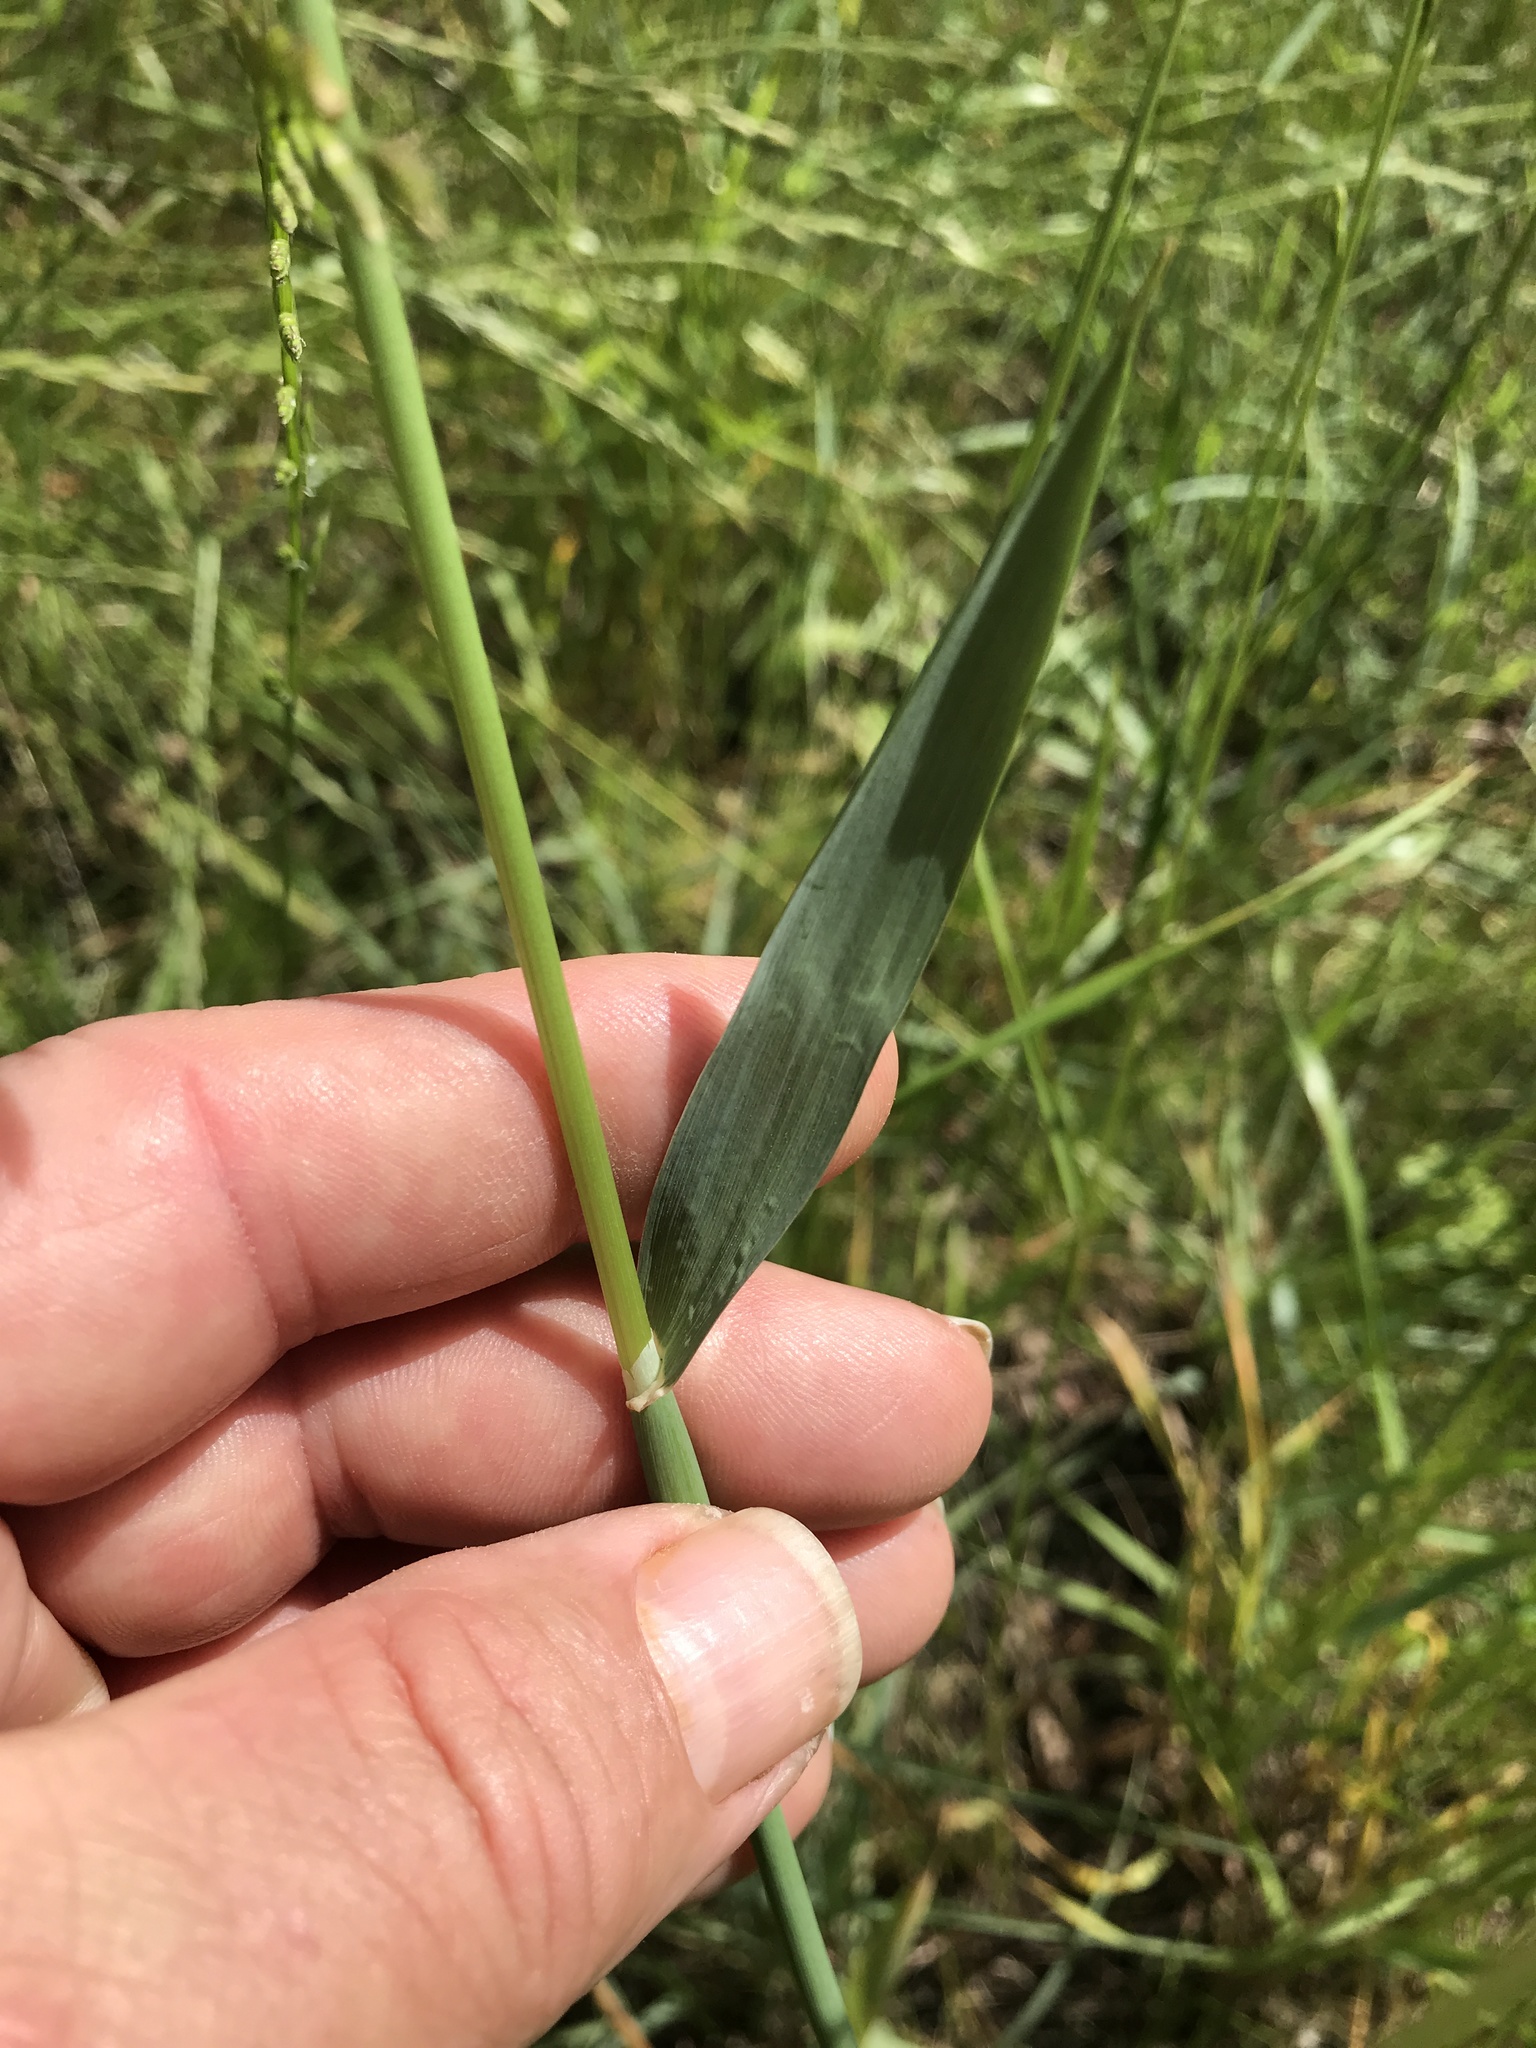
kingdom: Plantae
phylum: Tracheophyta
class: Liliopsida
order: Poales
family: Poaceae
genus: Phalaris
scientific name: Phalaris caroliniana
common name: May grass
